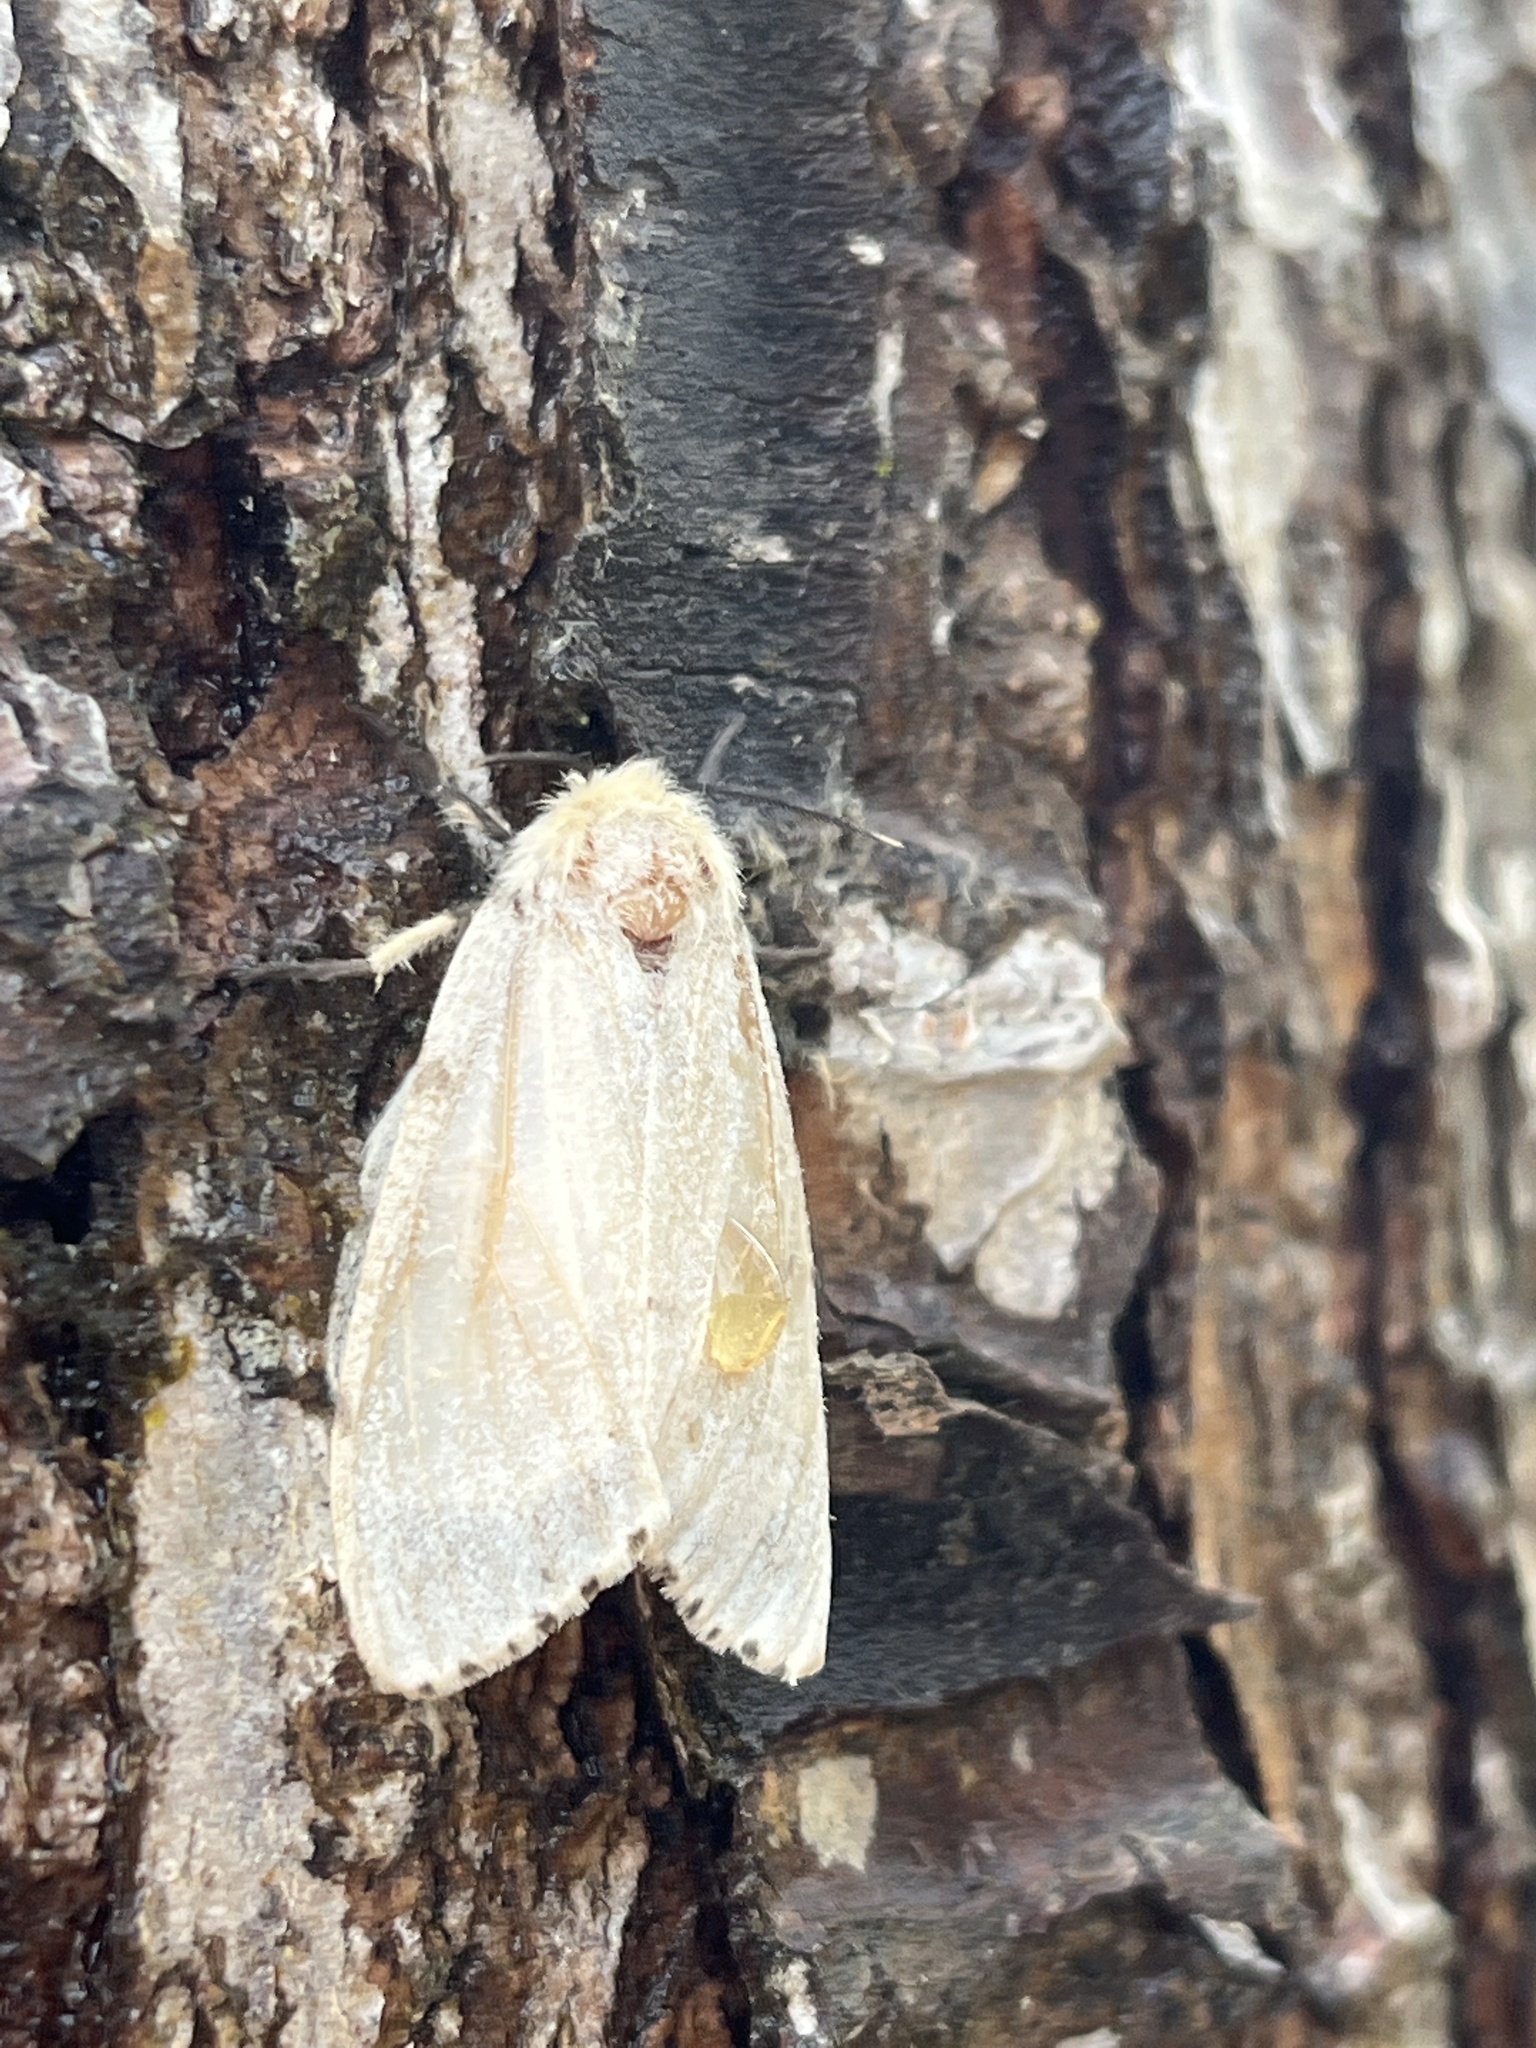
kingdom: Animalia
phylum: Arthropoda
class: Insecta
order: Lepidoptera
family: Erebidae
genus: Lymantria
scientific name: Lymantria dispar
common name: Gypsy moth
